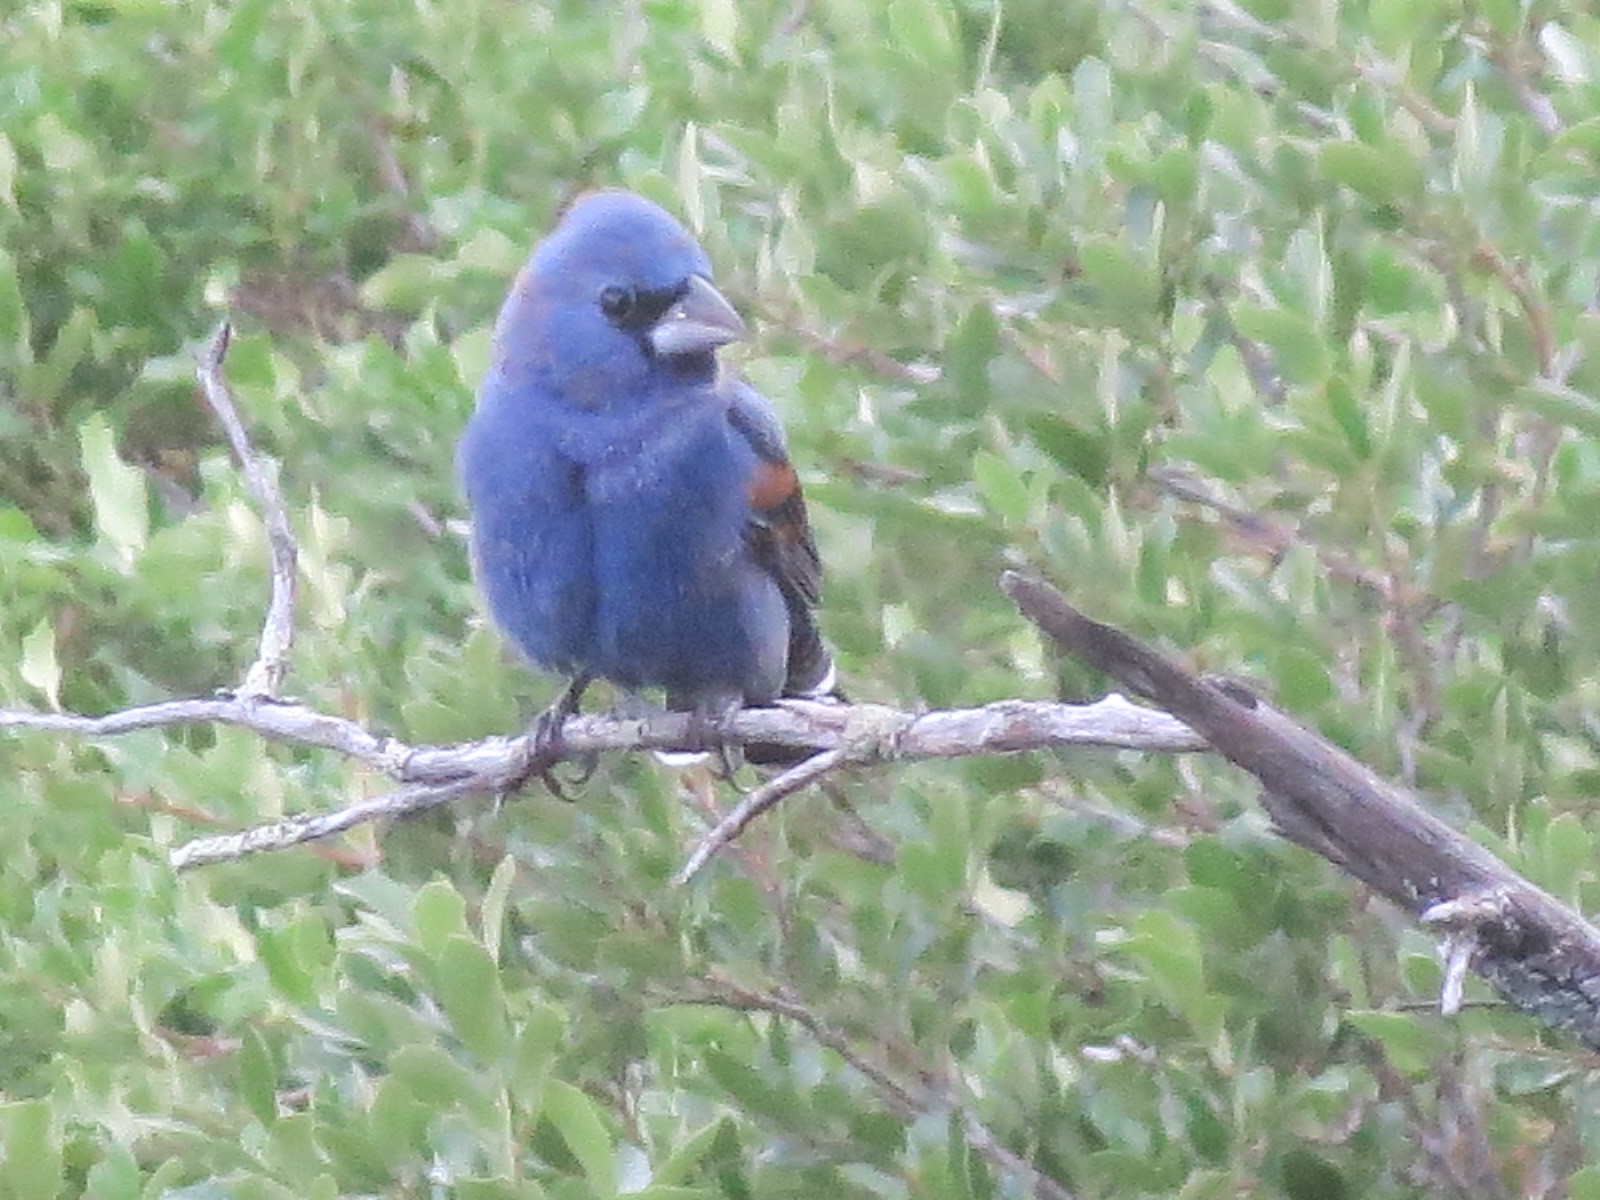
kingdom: Animalia
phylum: Chordata
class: Aves
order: Passeriformes
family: Cardinalidae
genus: Passerina
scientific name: Passerina caerulea
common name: Blue grosbeak
